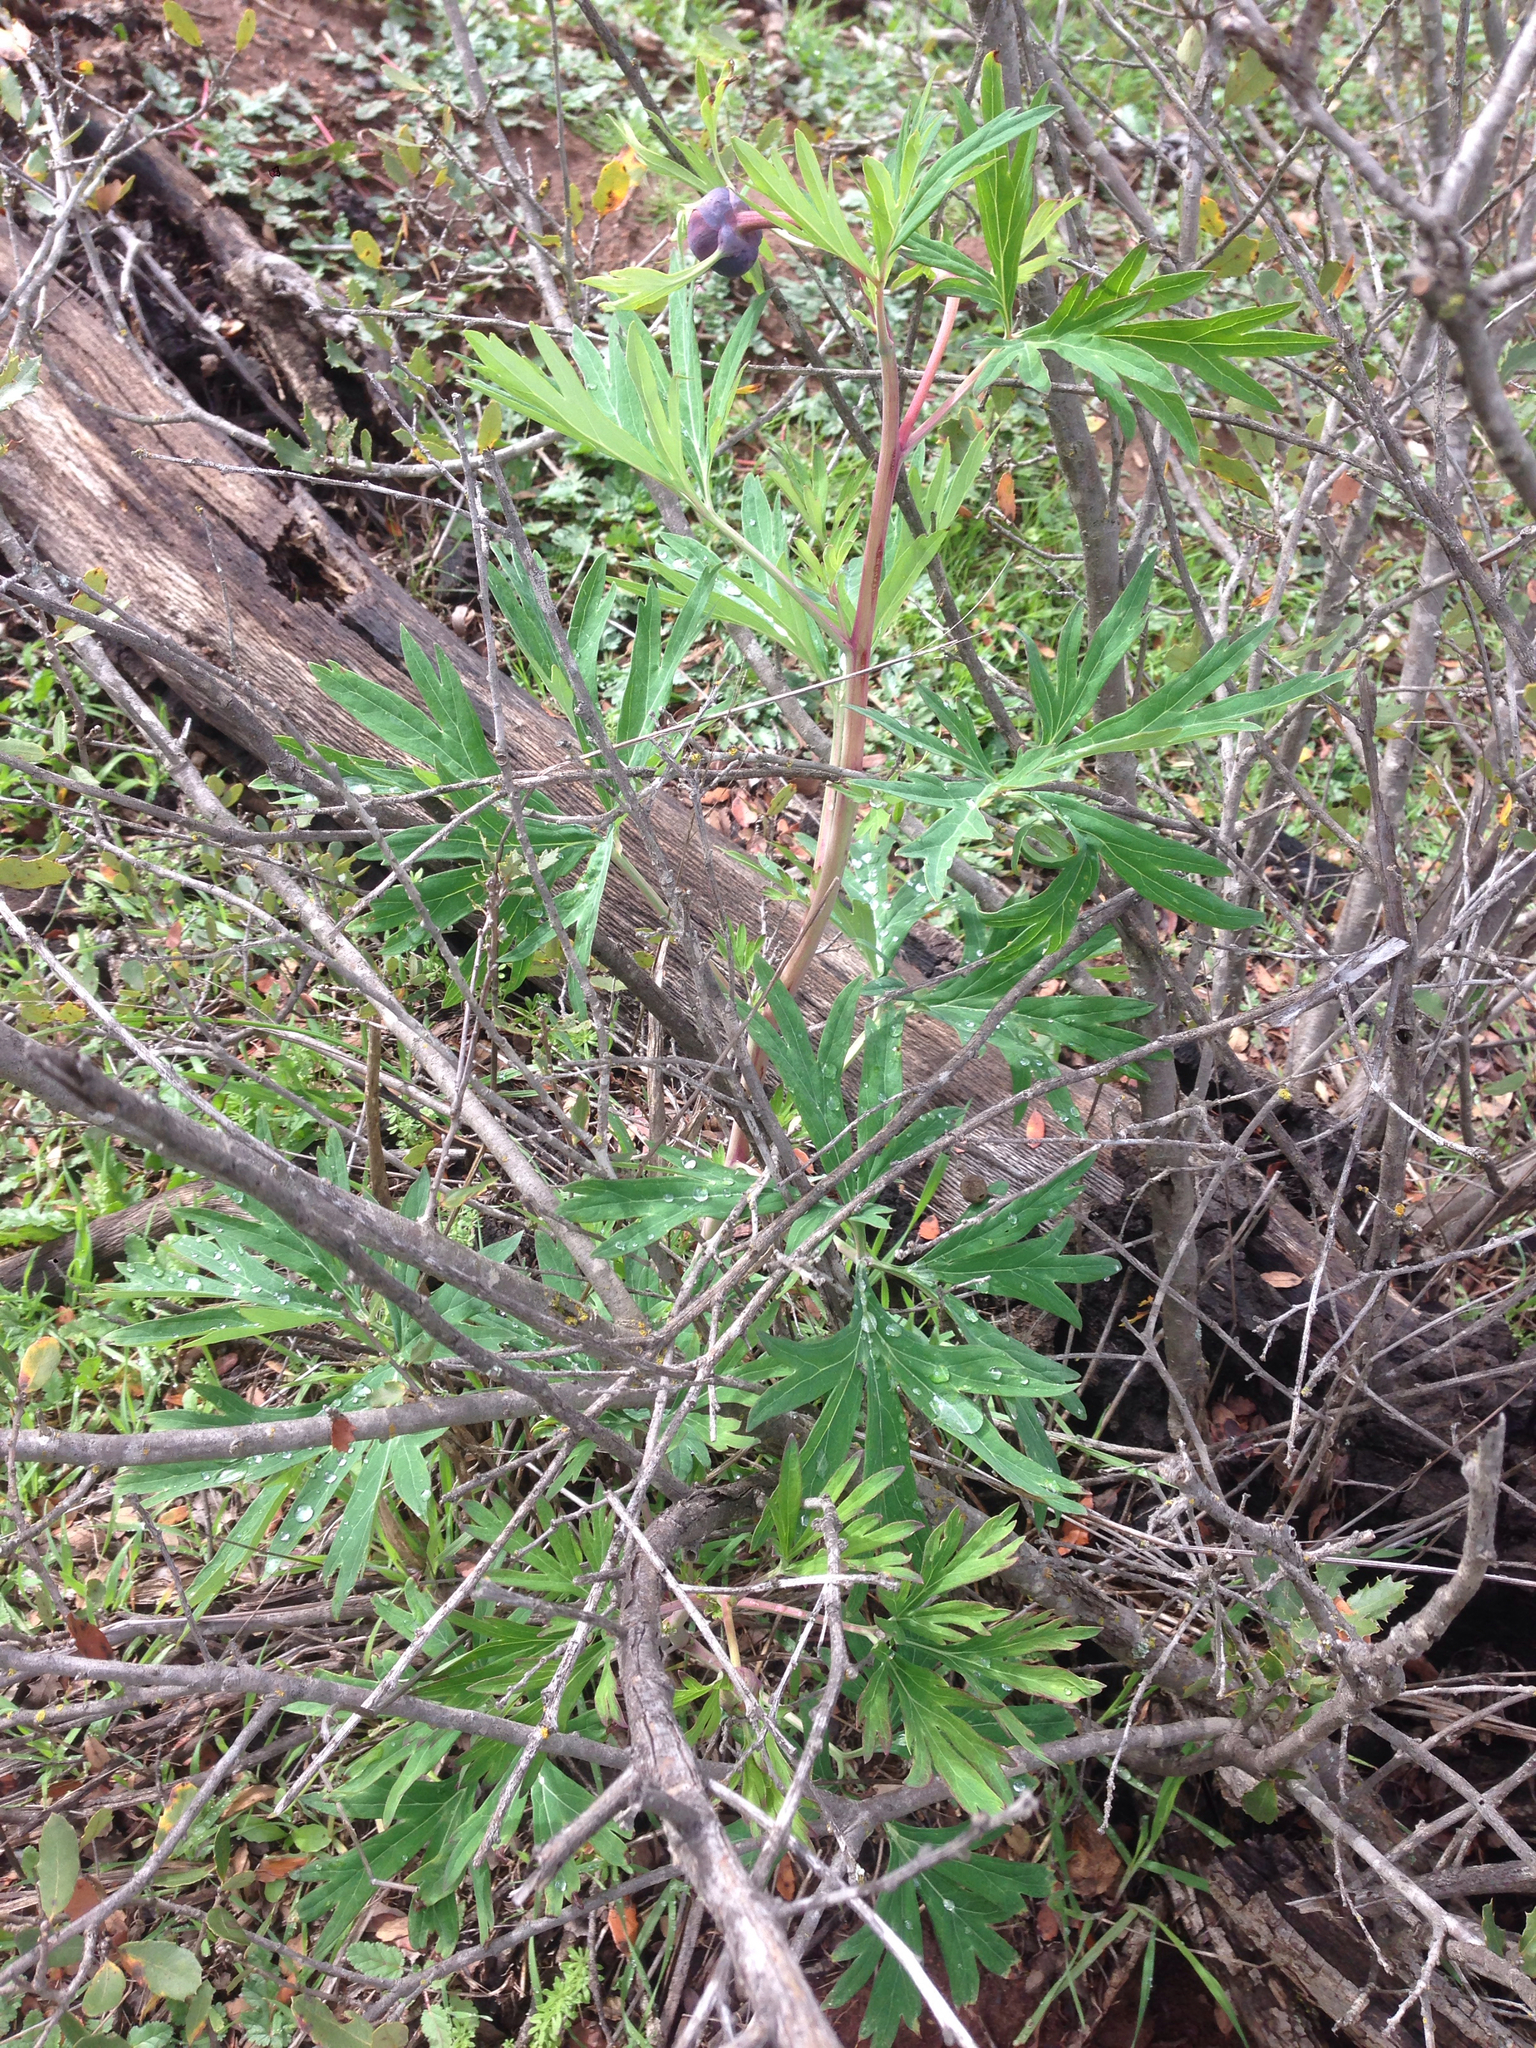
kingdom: Plantae
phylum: Tracheophyta
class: Magnoliopsida
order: Saxifragales
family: Paeoniaceae
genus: Paeonia
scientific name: Paeonia californica
